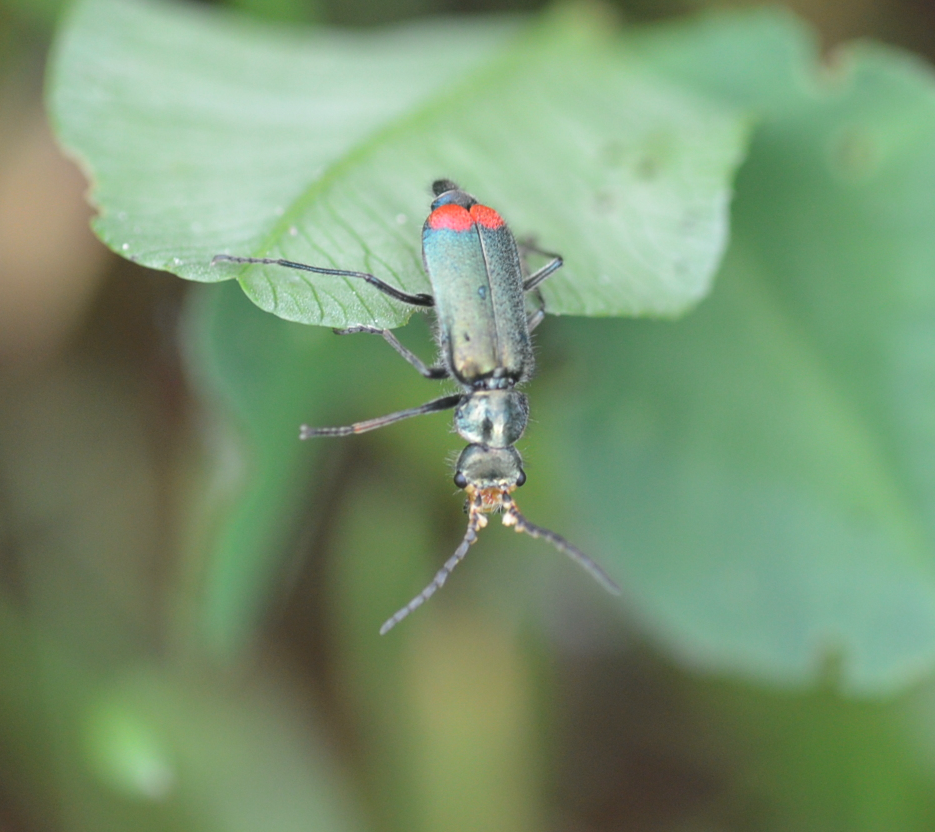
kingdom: Animalia
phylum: Arthropoda
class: Insecta
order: Coleoptera
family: Melyridae
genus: Malachius
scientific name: Malachius bipustulatus
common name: Malachite beetle
